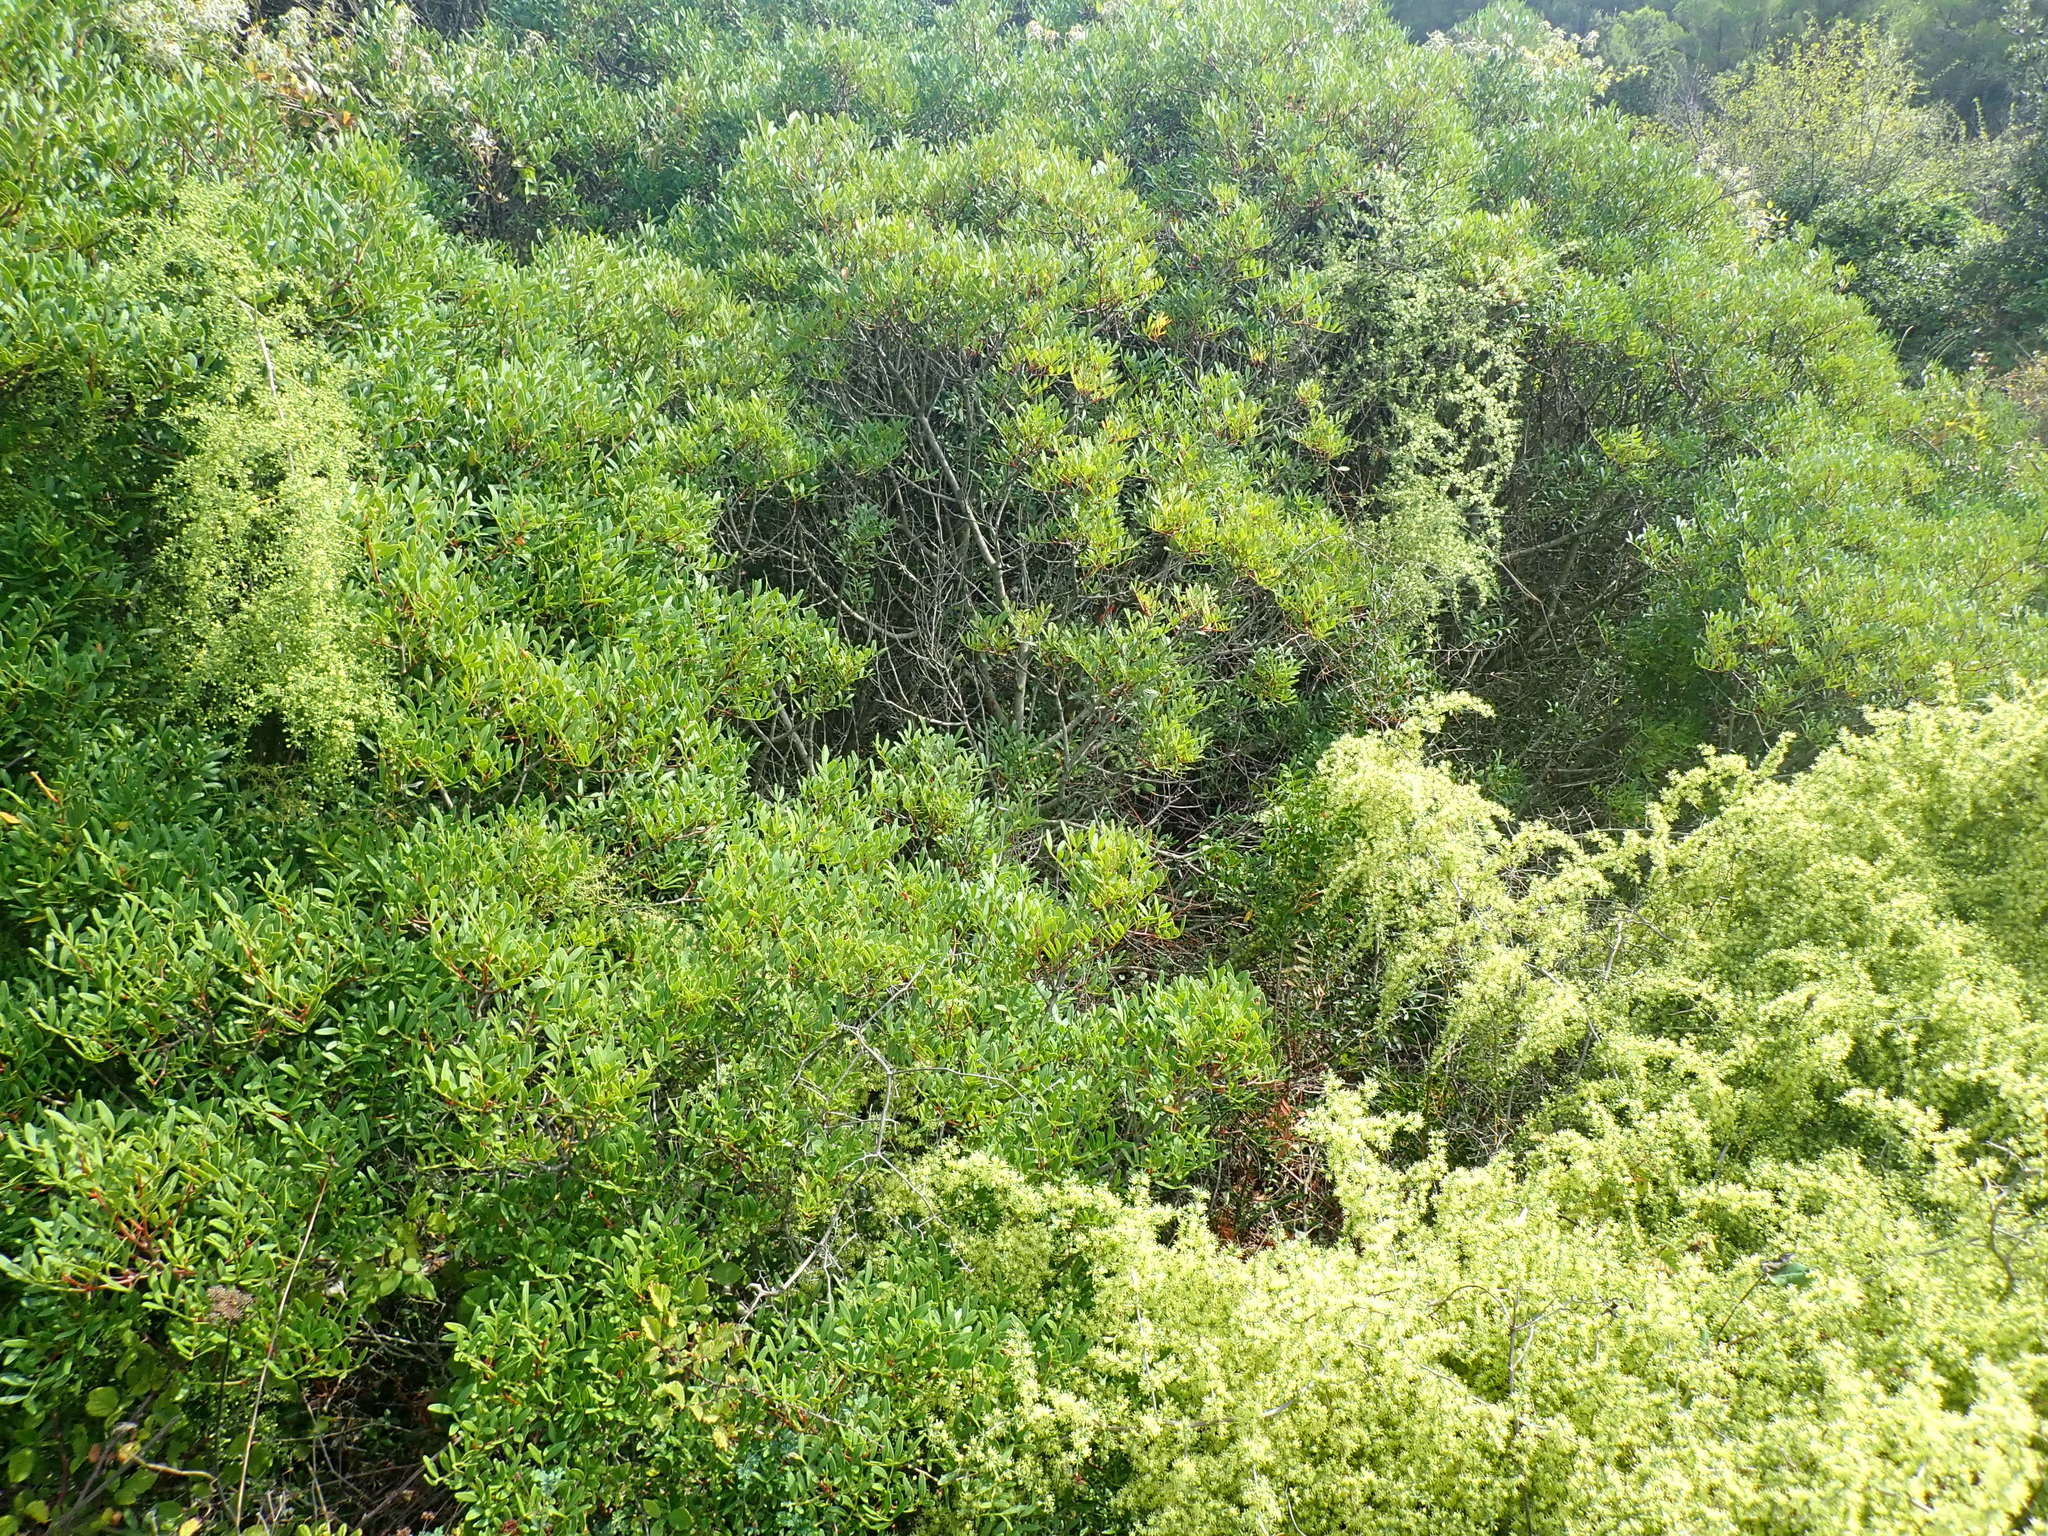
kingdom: Plantae
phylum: Tracheophyta
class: Magnoliopsida
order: Sapindales
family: Anacardiaceae
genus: Pistacia
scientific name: Pistacia lentiscus
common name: Lentisk
